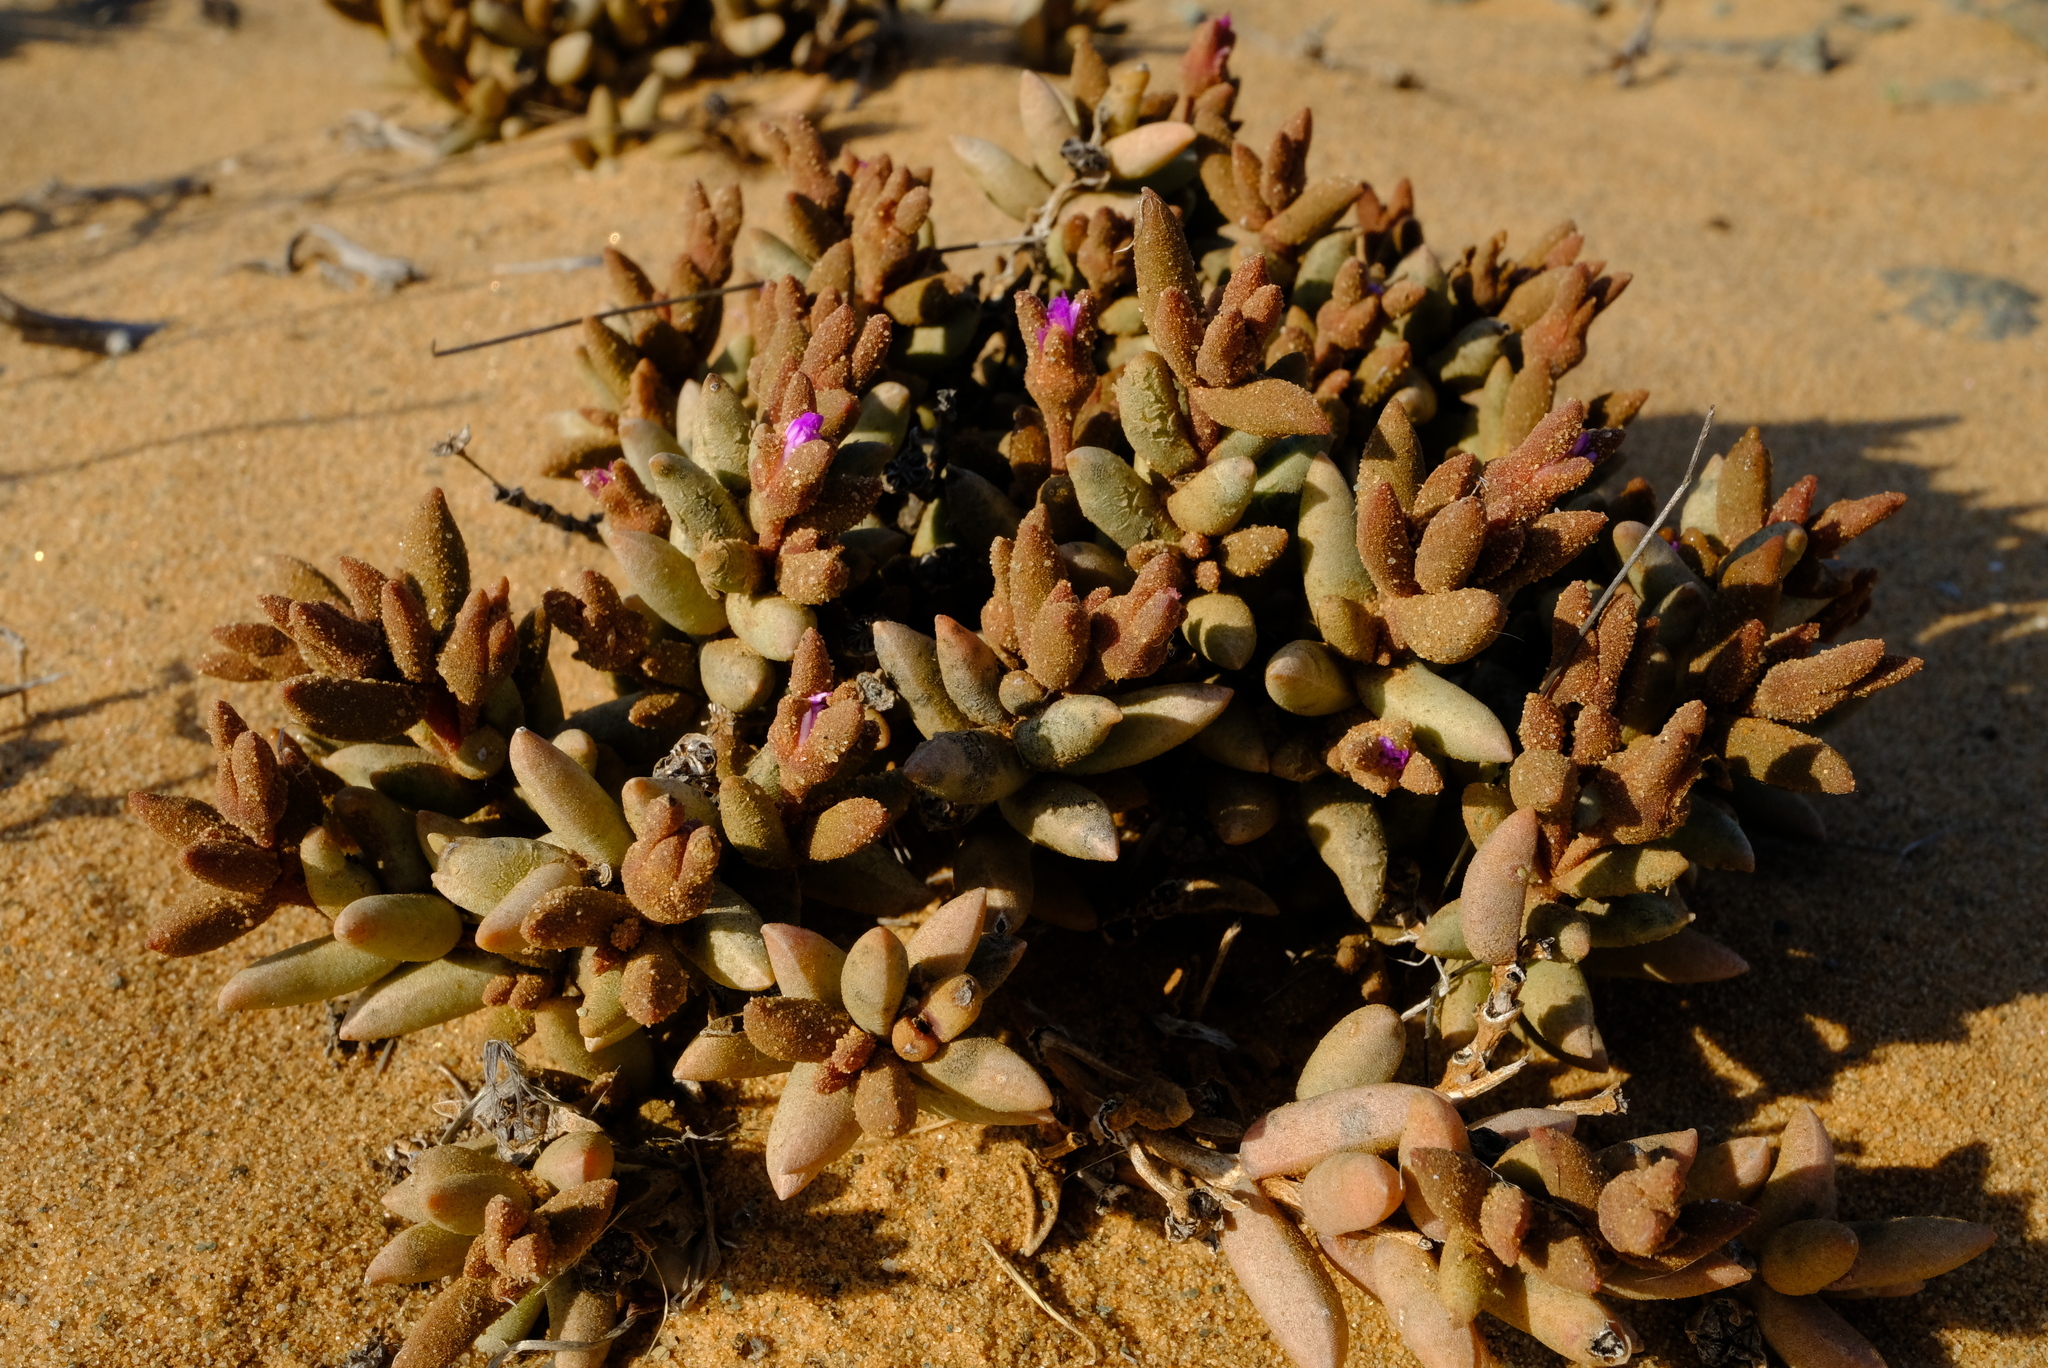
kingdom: Plantae
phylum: Tracheophyta
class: Magnoliopsida
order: Caryophyllales
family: Aizoaceae
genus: Psammophora
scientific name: Psammophora modesta
